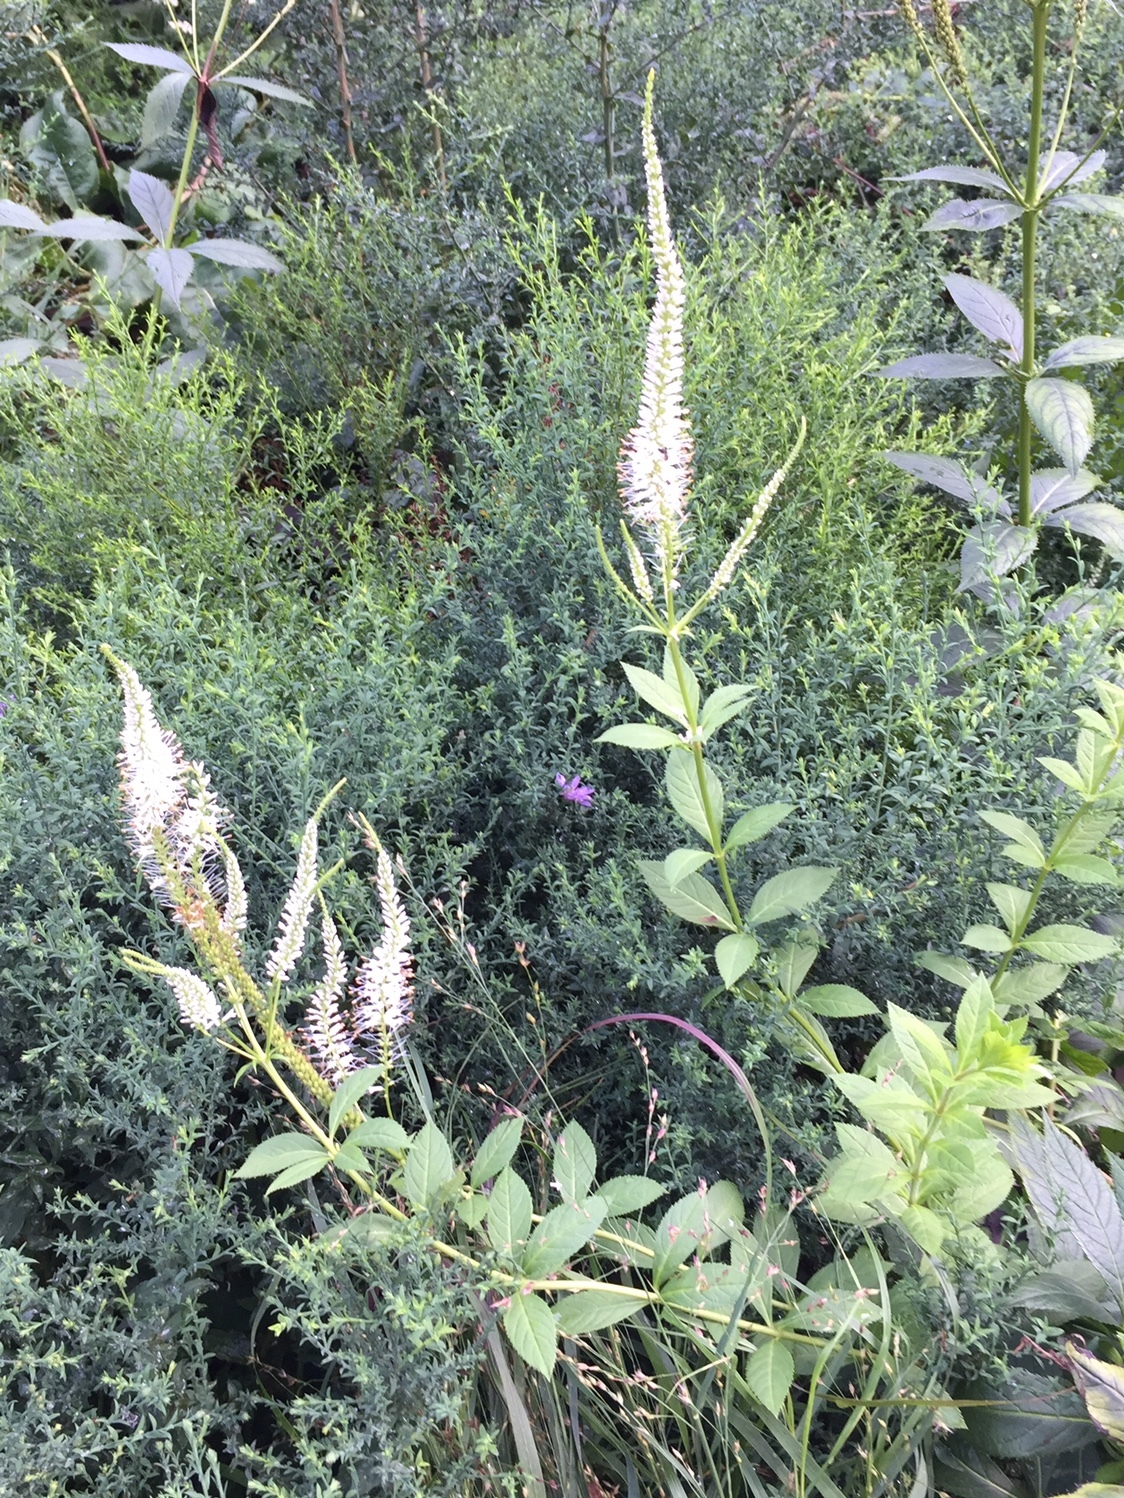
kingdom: Plantae
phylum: Tracheophyta
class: Magnoliopsida
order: Lamiales
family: Plantaginaceae
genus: Veronicastrum
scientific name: Veronicastrum virginicum
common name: Blackroot
